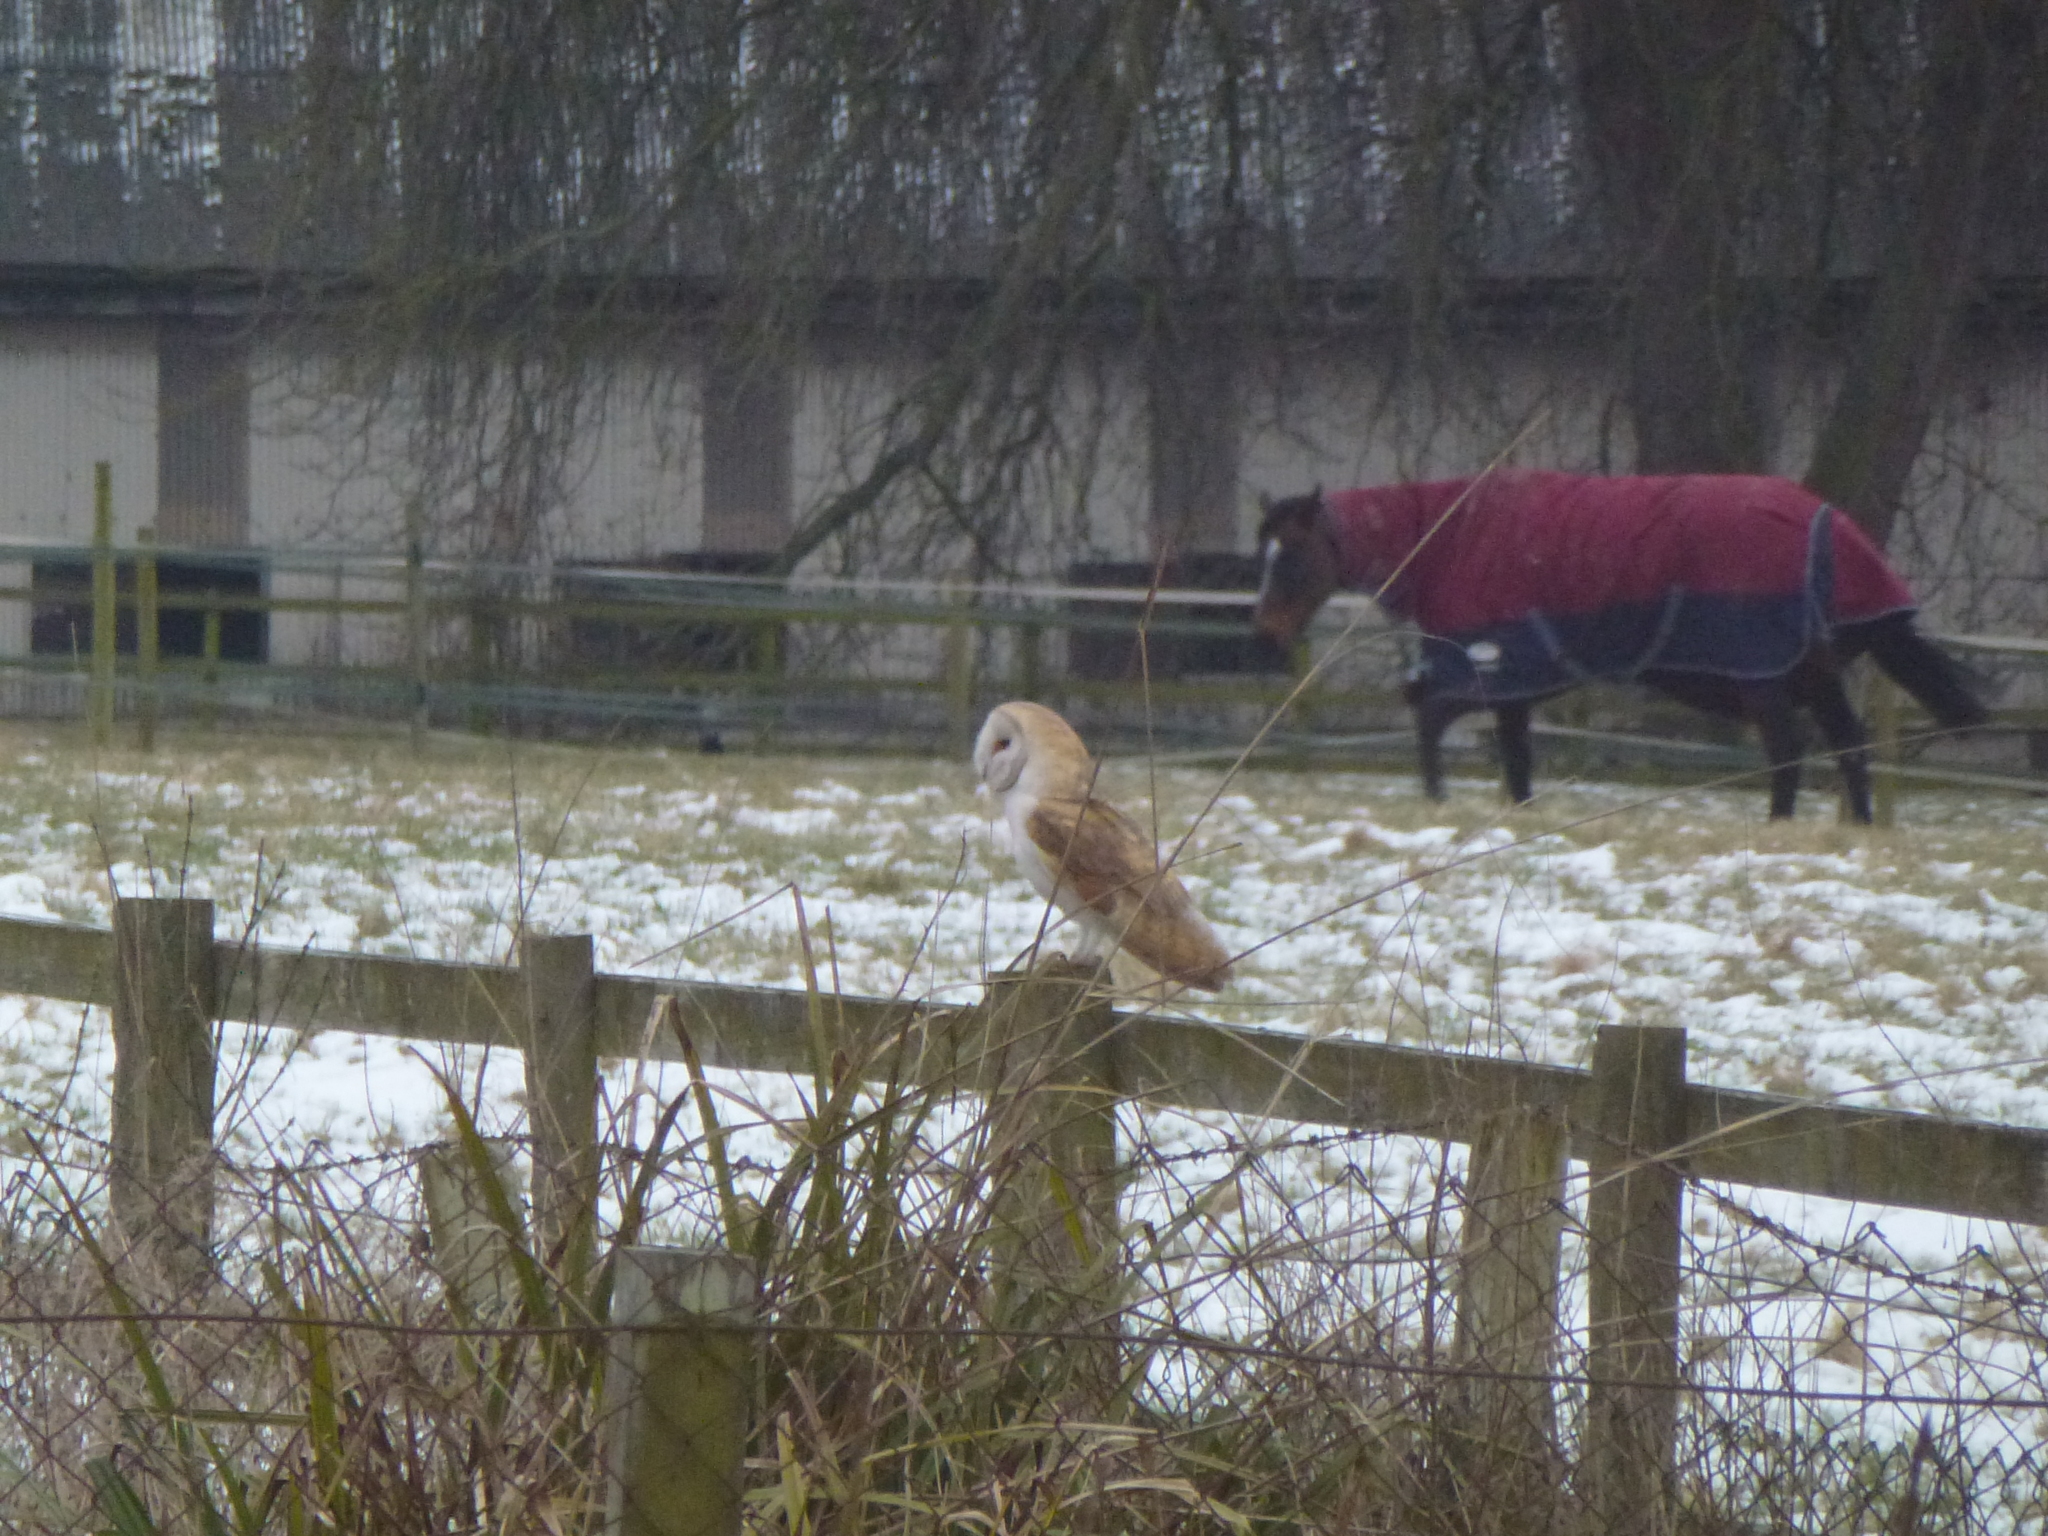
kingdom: Animalia
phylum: Chordata
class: Aves
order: Strigiformes
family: Tytonidae
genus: Tyto
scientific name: Tyto alba
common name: Barn owl
